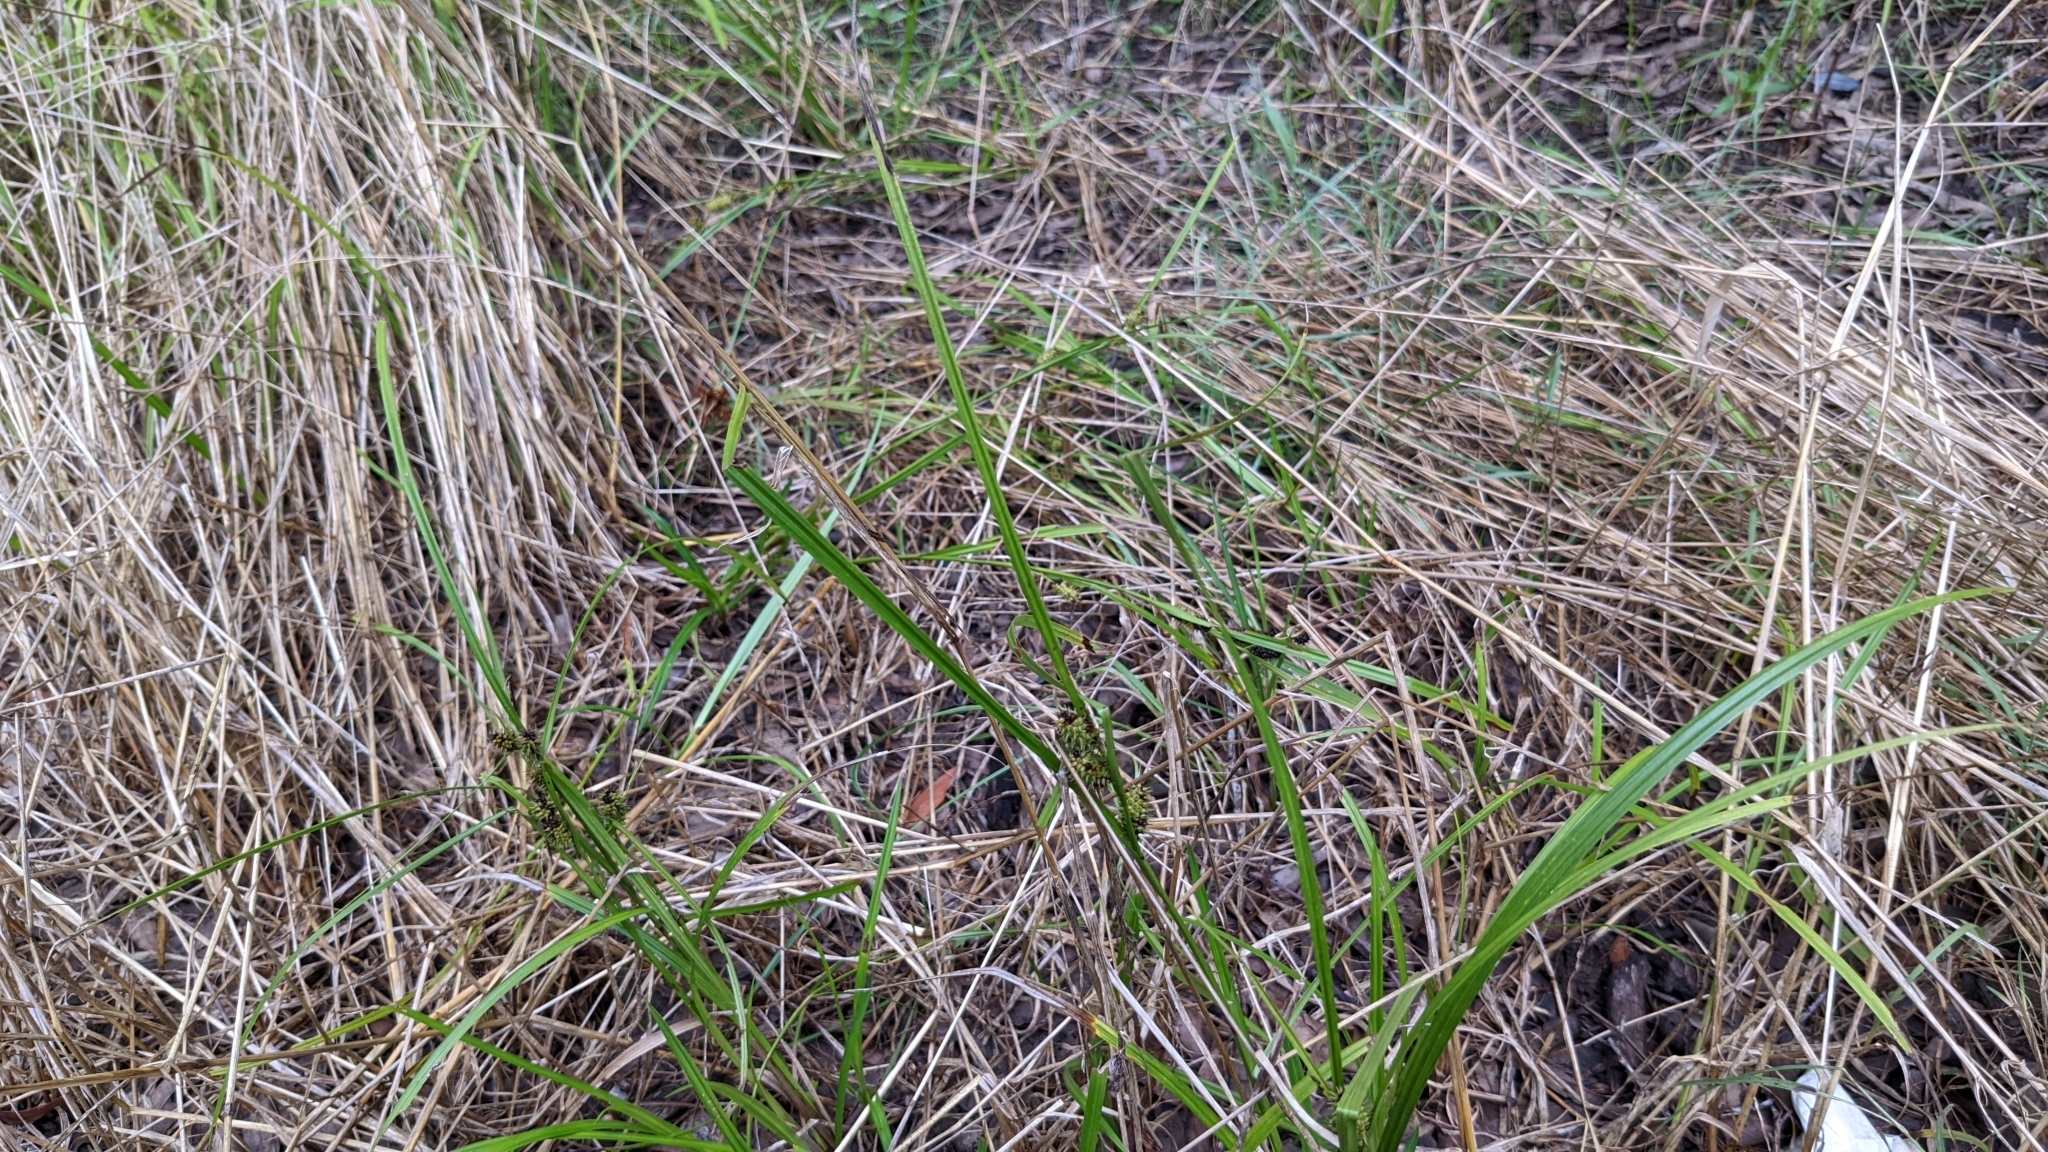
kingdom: Plantae
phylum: Tracheophyta
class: Liliopsida
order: Poales
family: Cyperaceae
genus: Carex
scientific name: Carex aureolensis
